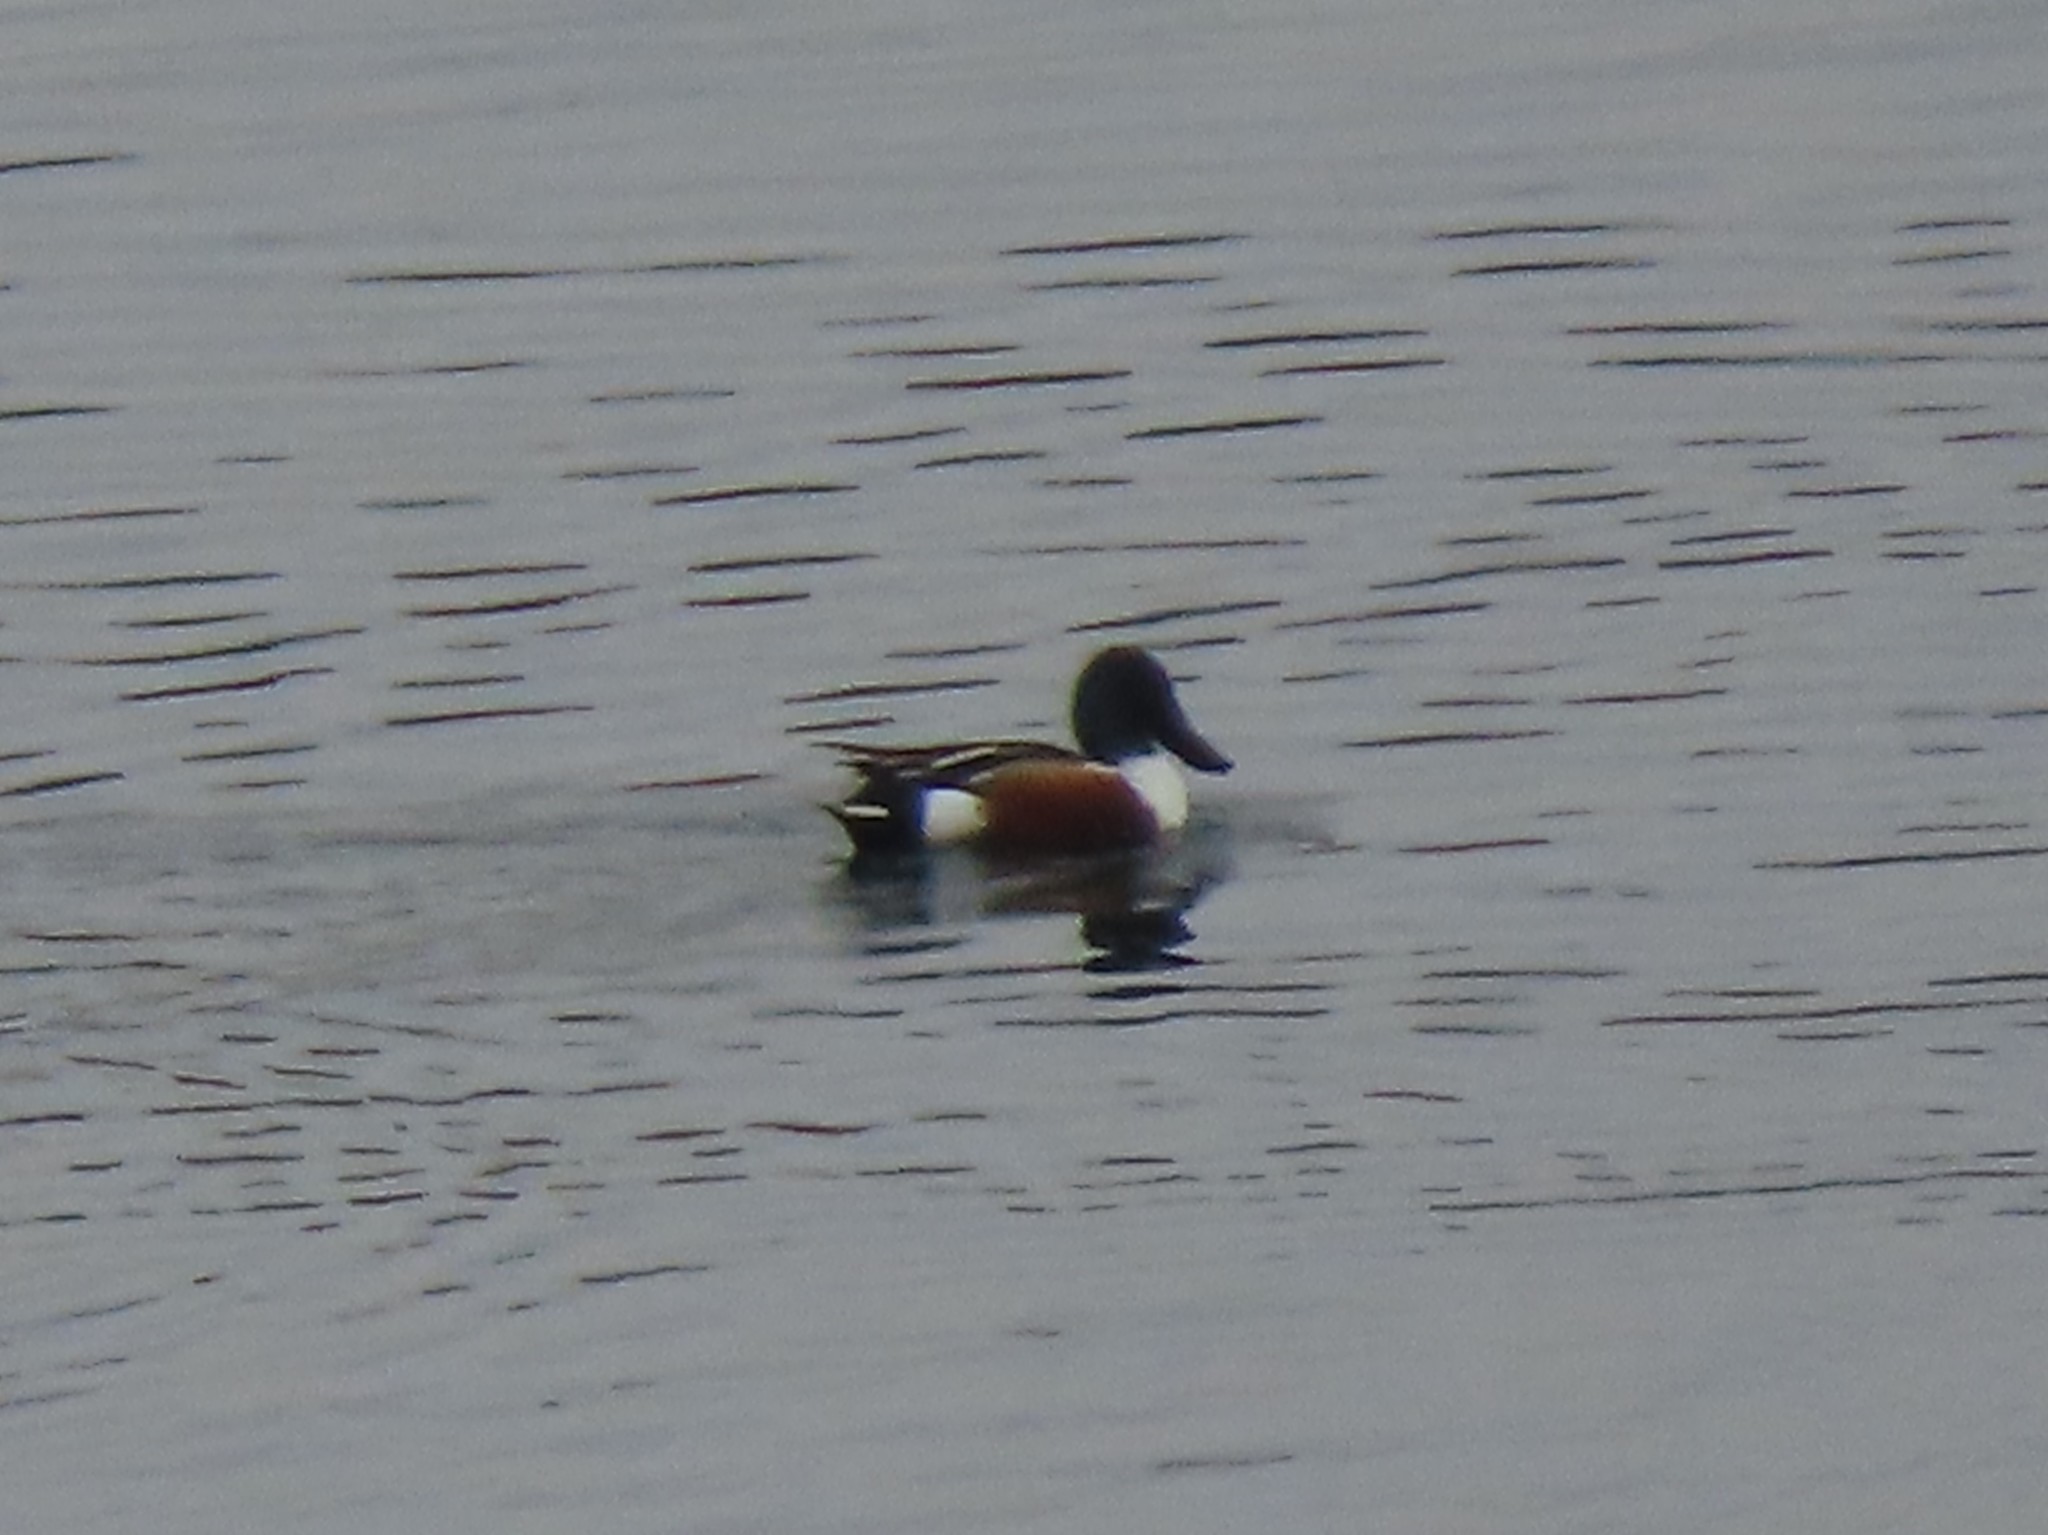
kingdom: Animalia
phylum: Chordata
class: Aves
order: Anseriformes
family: Anatidae
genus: Spatula
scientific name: Spatula clypeata
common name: Northern shoveler
